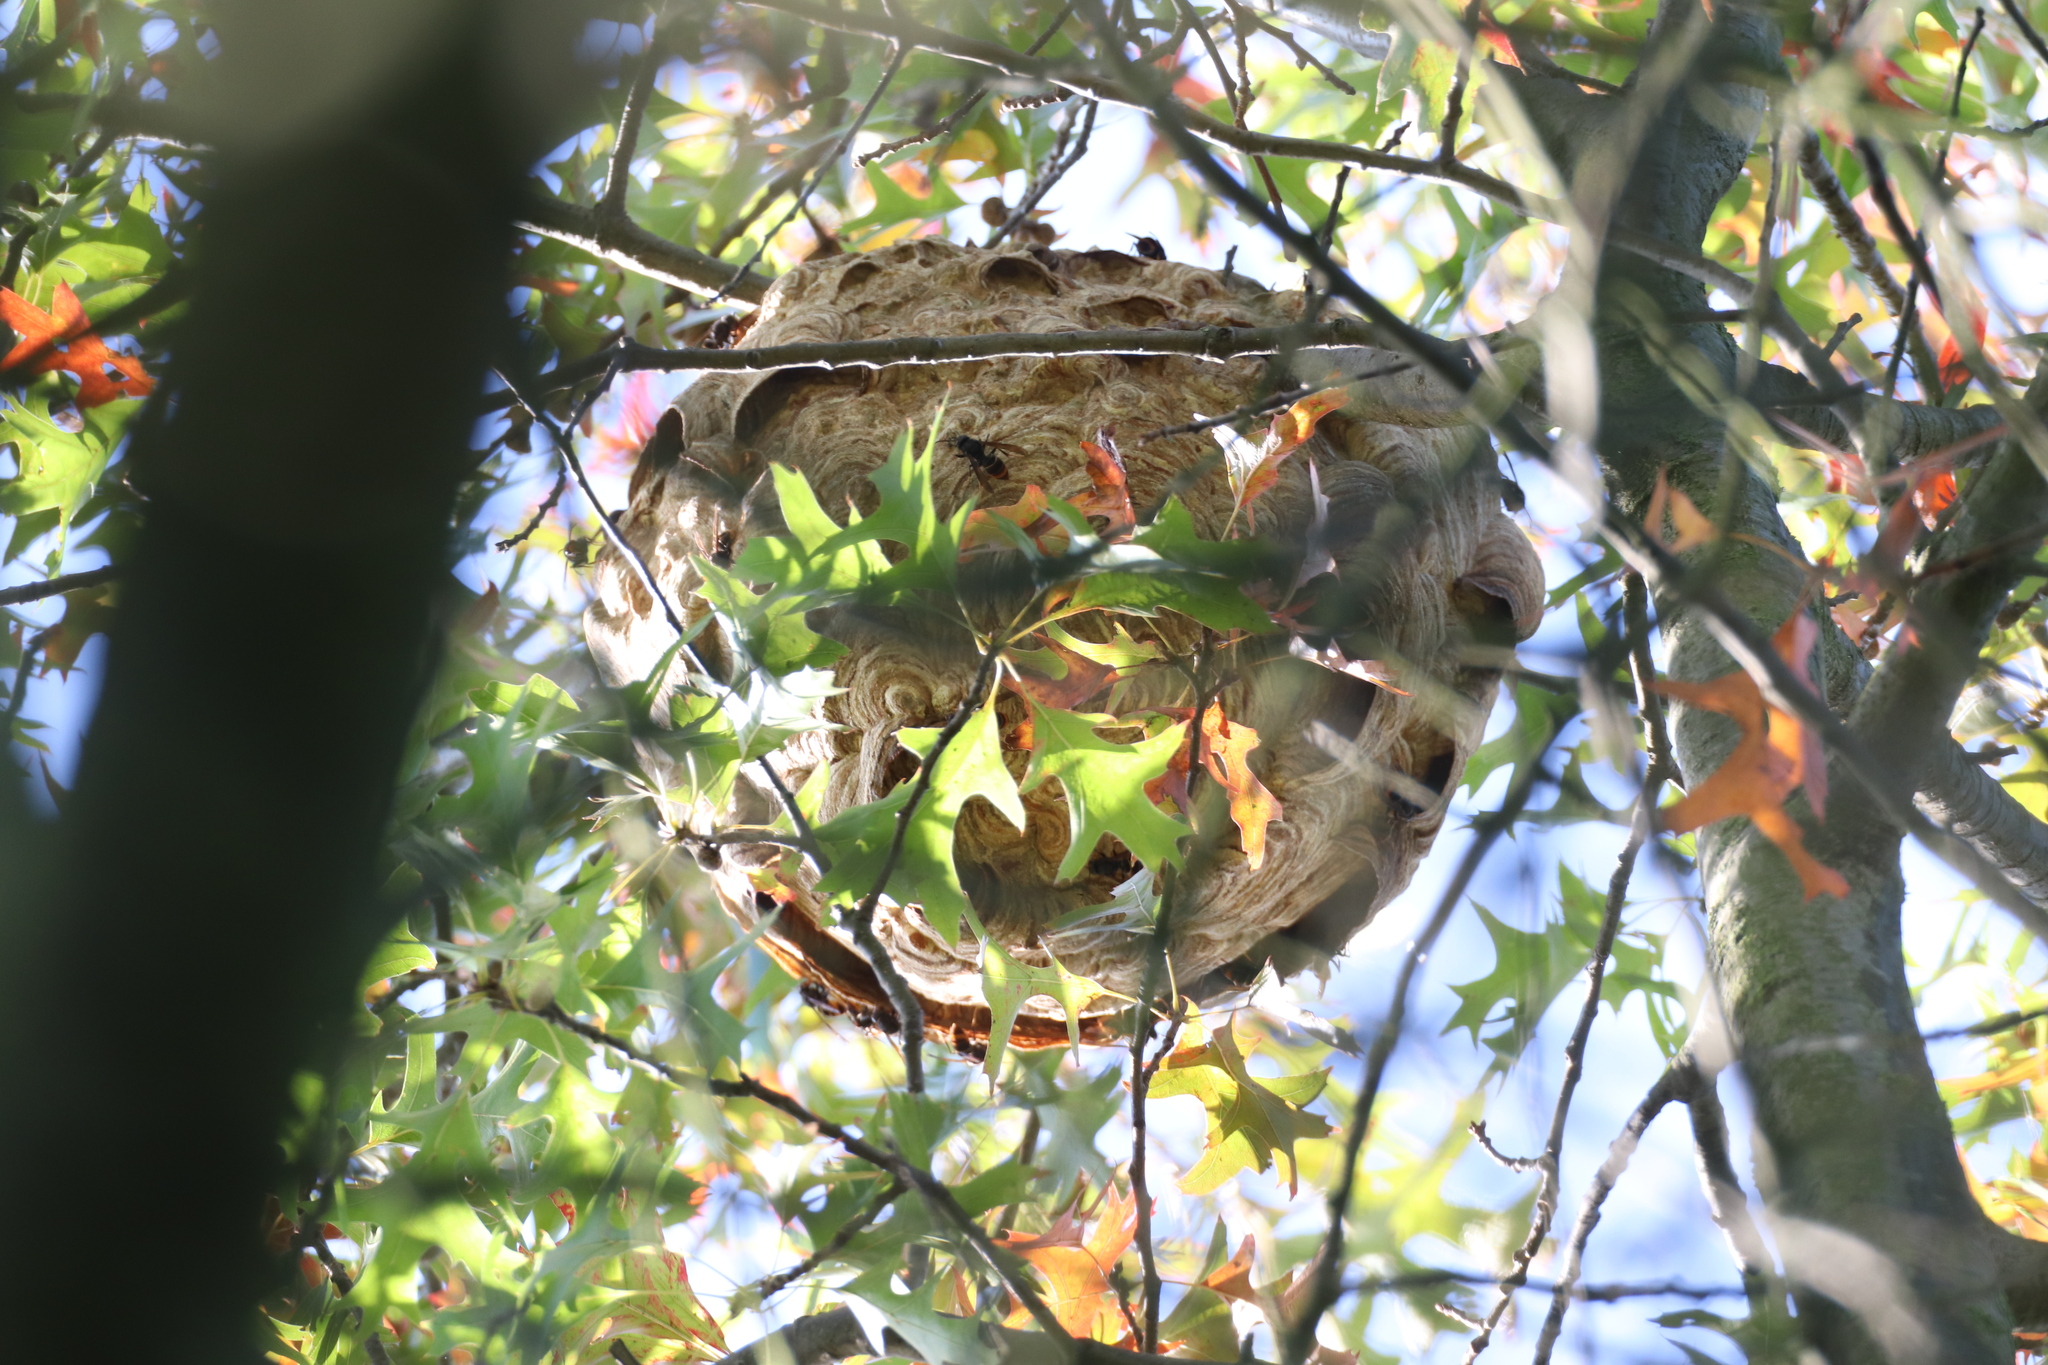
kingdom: Animalia
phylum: Arthropoda
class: Insecta
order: Hymenoptera
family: Vespidae
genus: Vespa
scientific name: Vespa velutina
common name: Asian hornet
